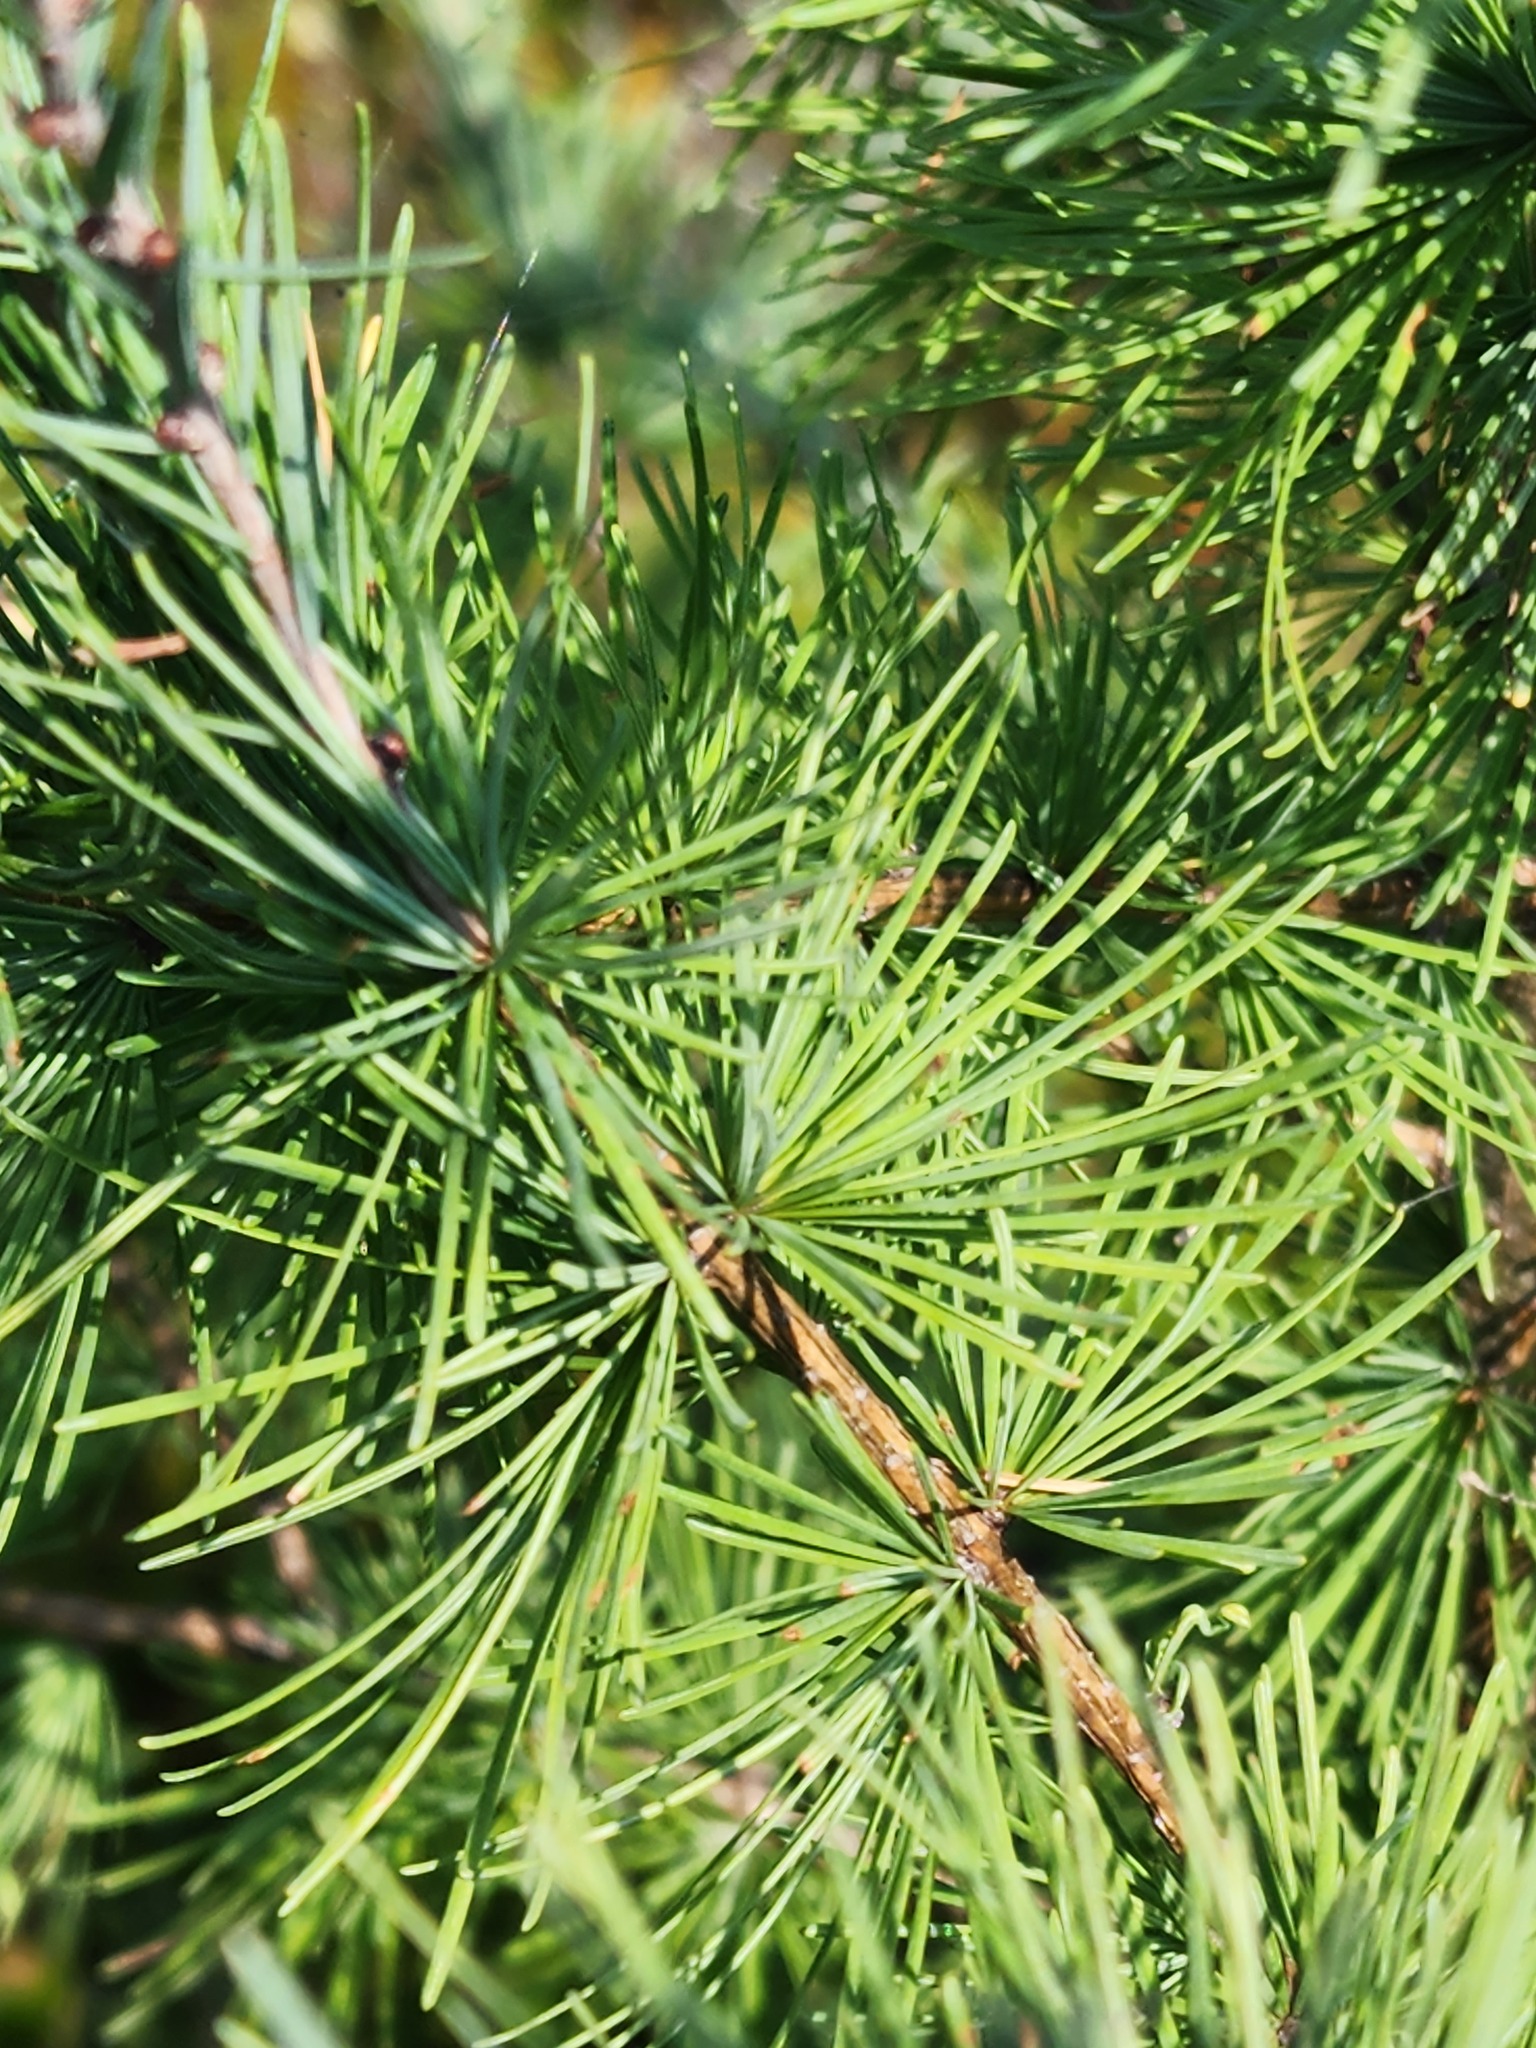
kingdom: Plantae
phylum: Tracheophyta
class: Pinopsida
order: Pinales
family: Pinaceae
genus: Larix
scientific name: Larix laricina
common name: American larch
